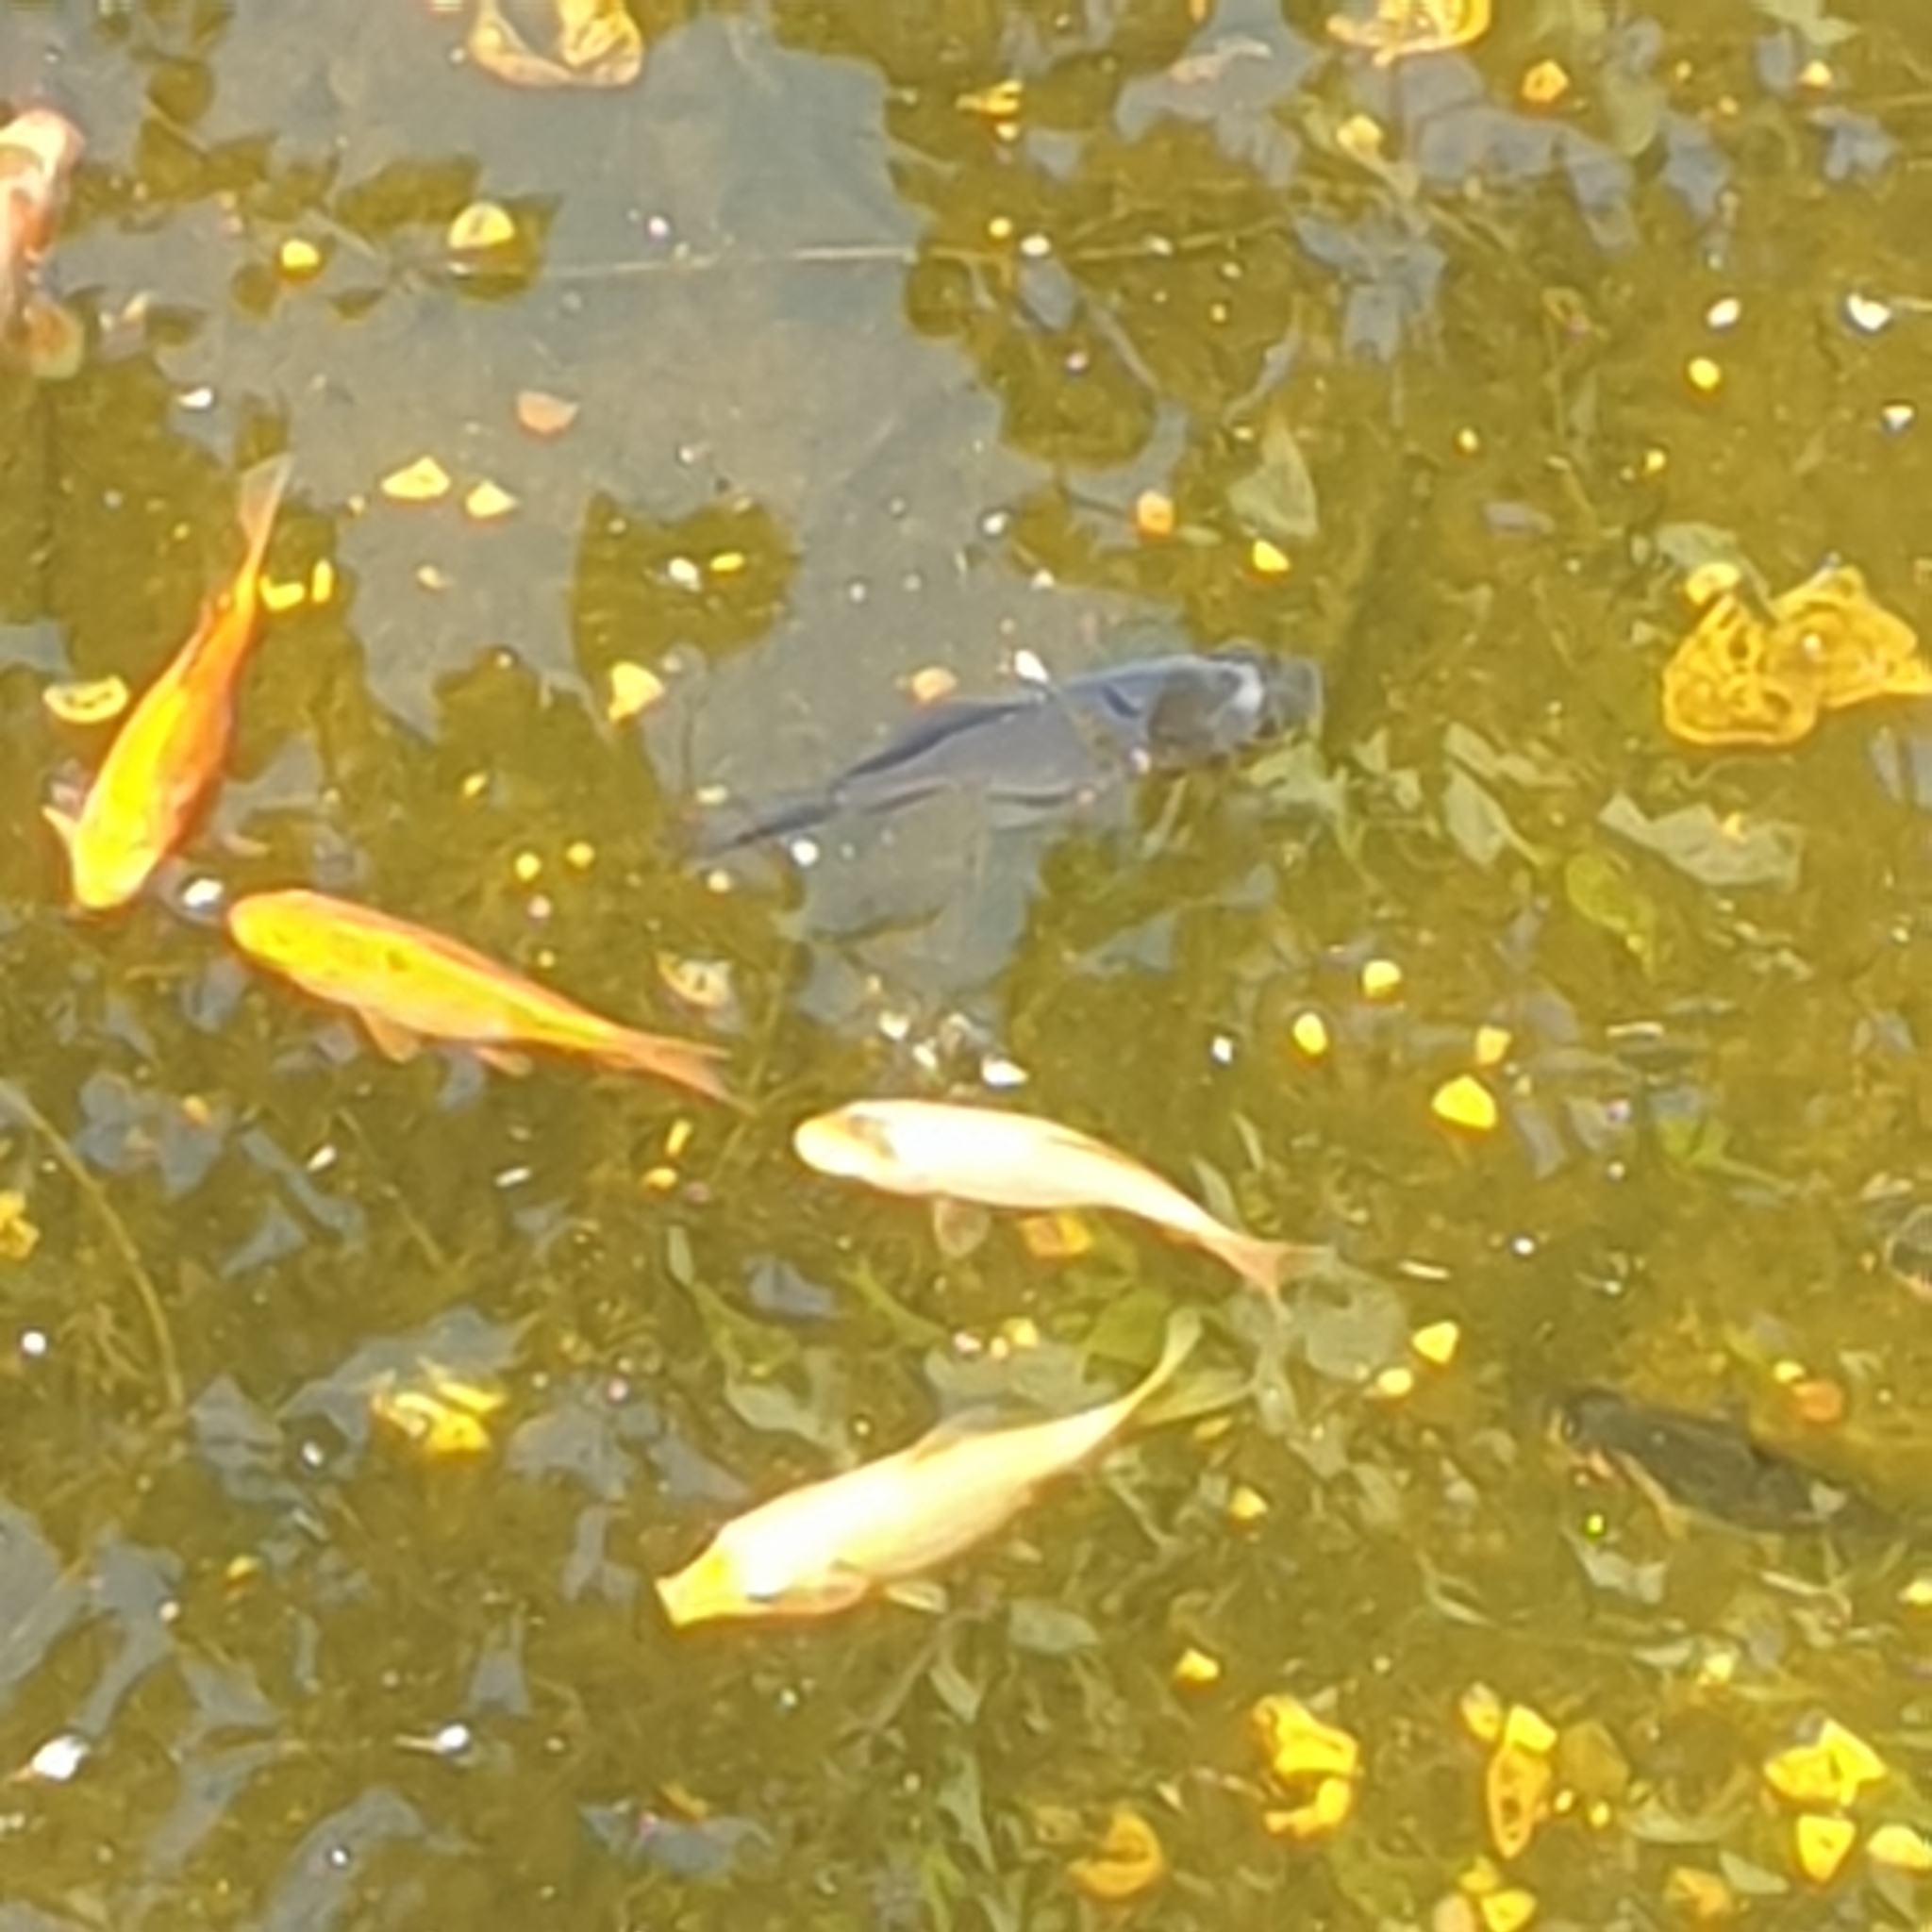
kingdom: Animalia
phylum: Chordata
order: Cypriniformes
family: Cyprinidae
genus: Carassius
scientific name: Carassius auratus
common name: Goldfish
